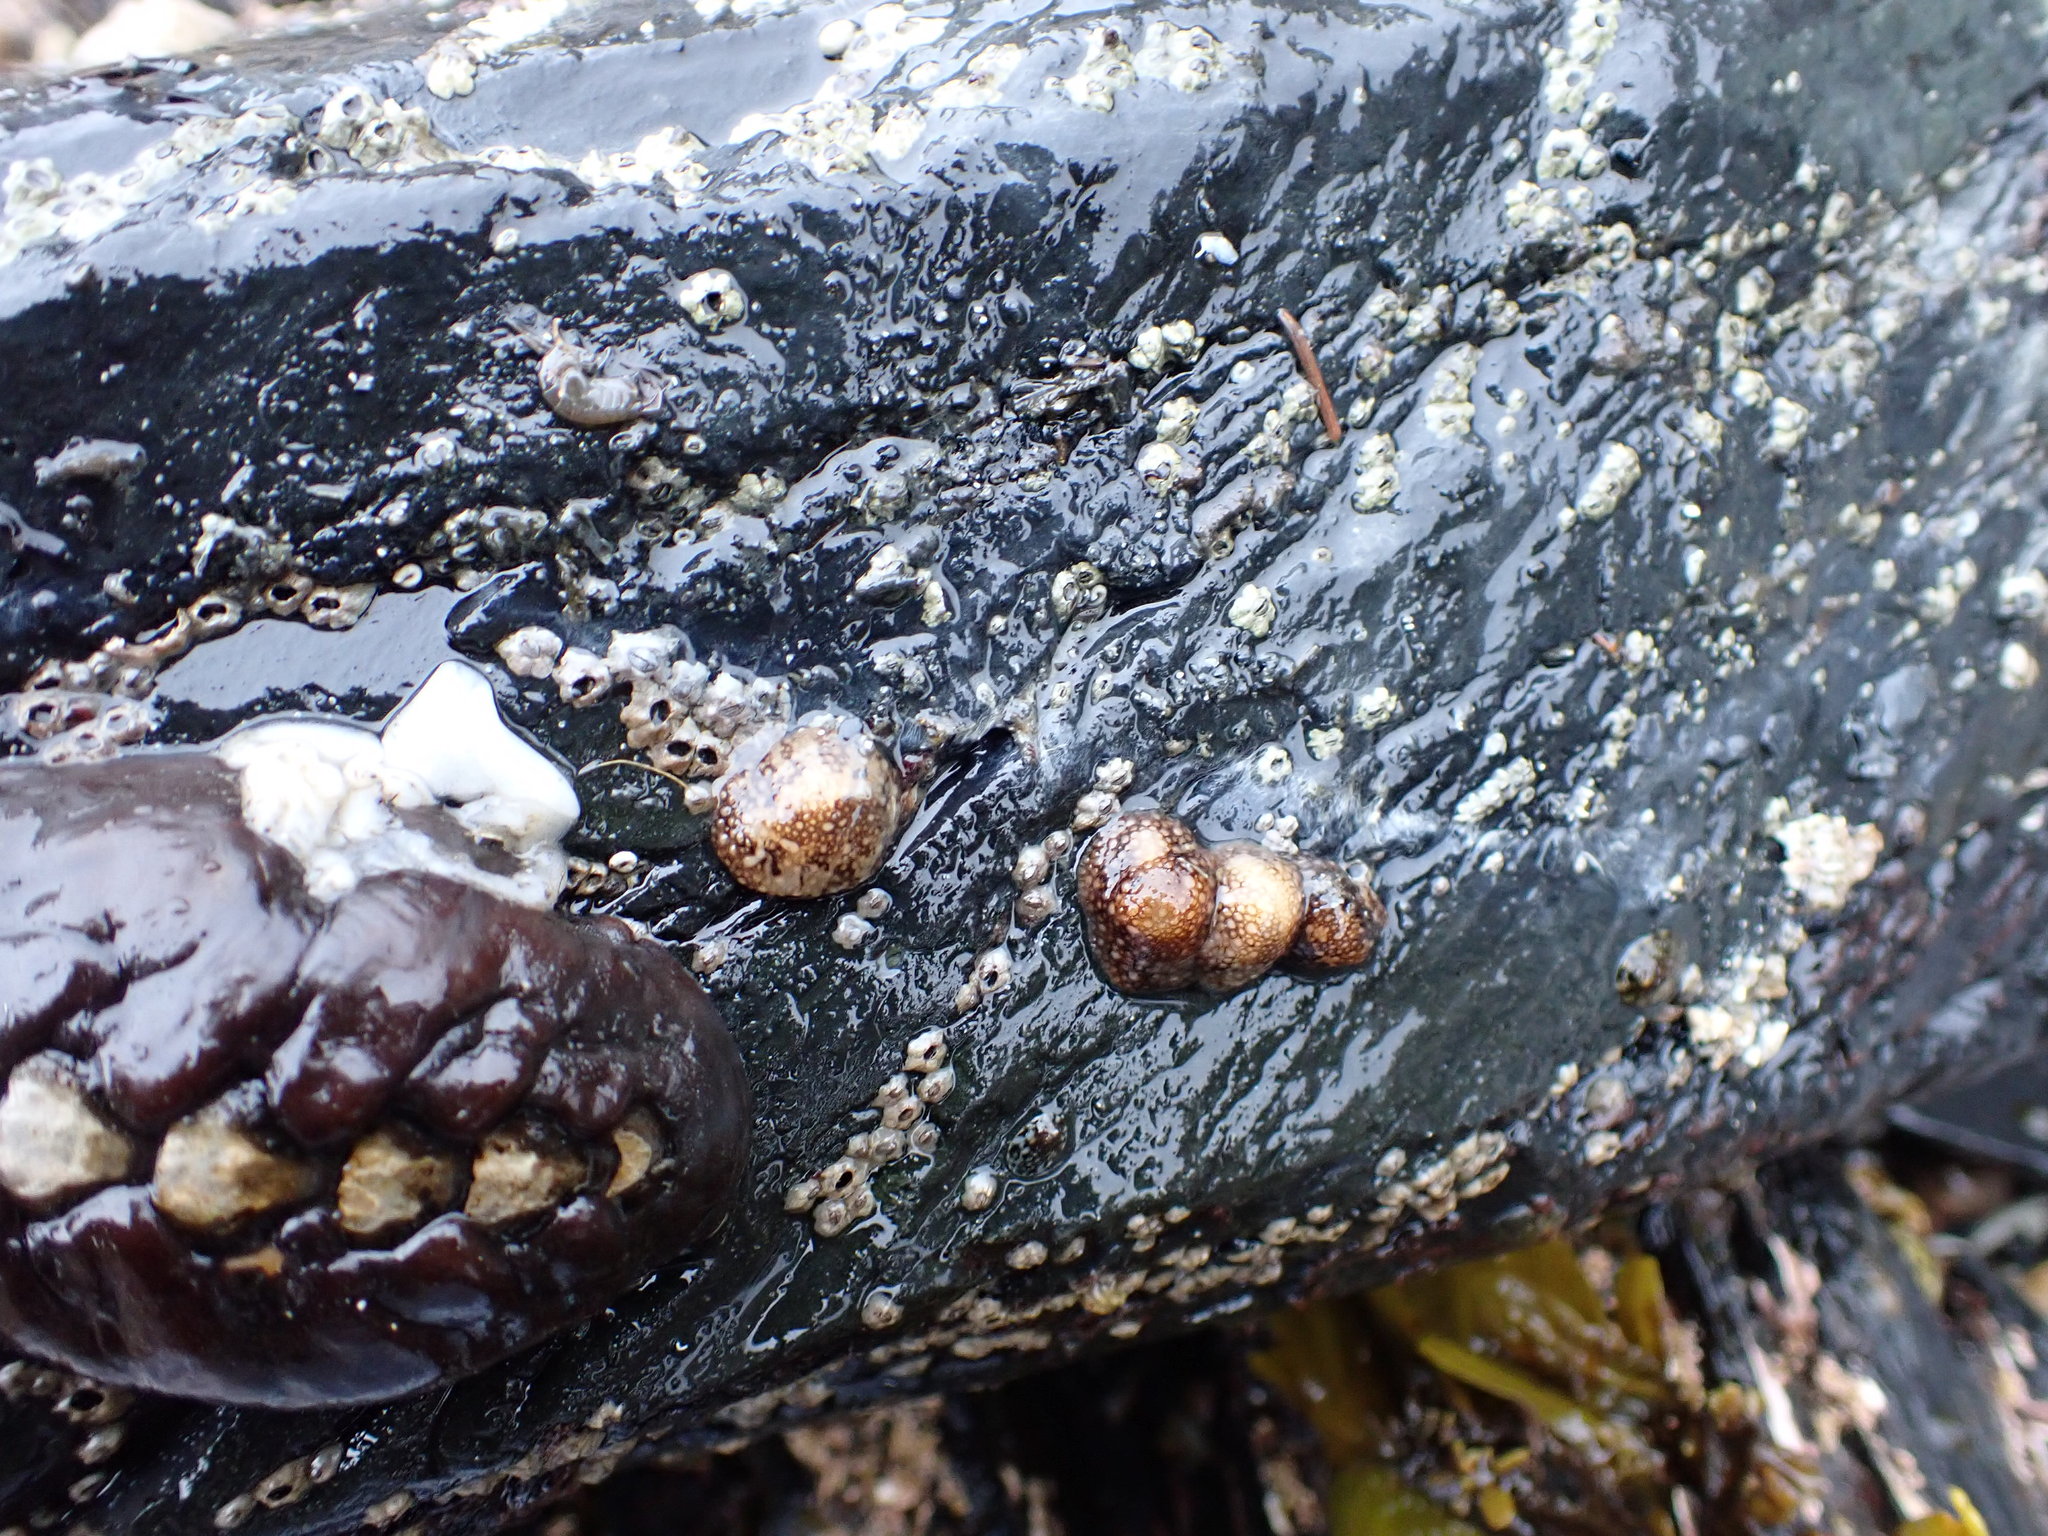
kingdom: Animalia
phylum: Mollusca
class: Gastropoda
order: Nudibranchia
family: Onchidorididae
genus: Onchidoris
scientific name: Onchidoris bilamellata
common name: Barnacle-eating onchidoris
